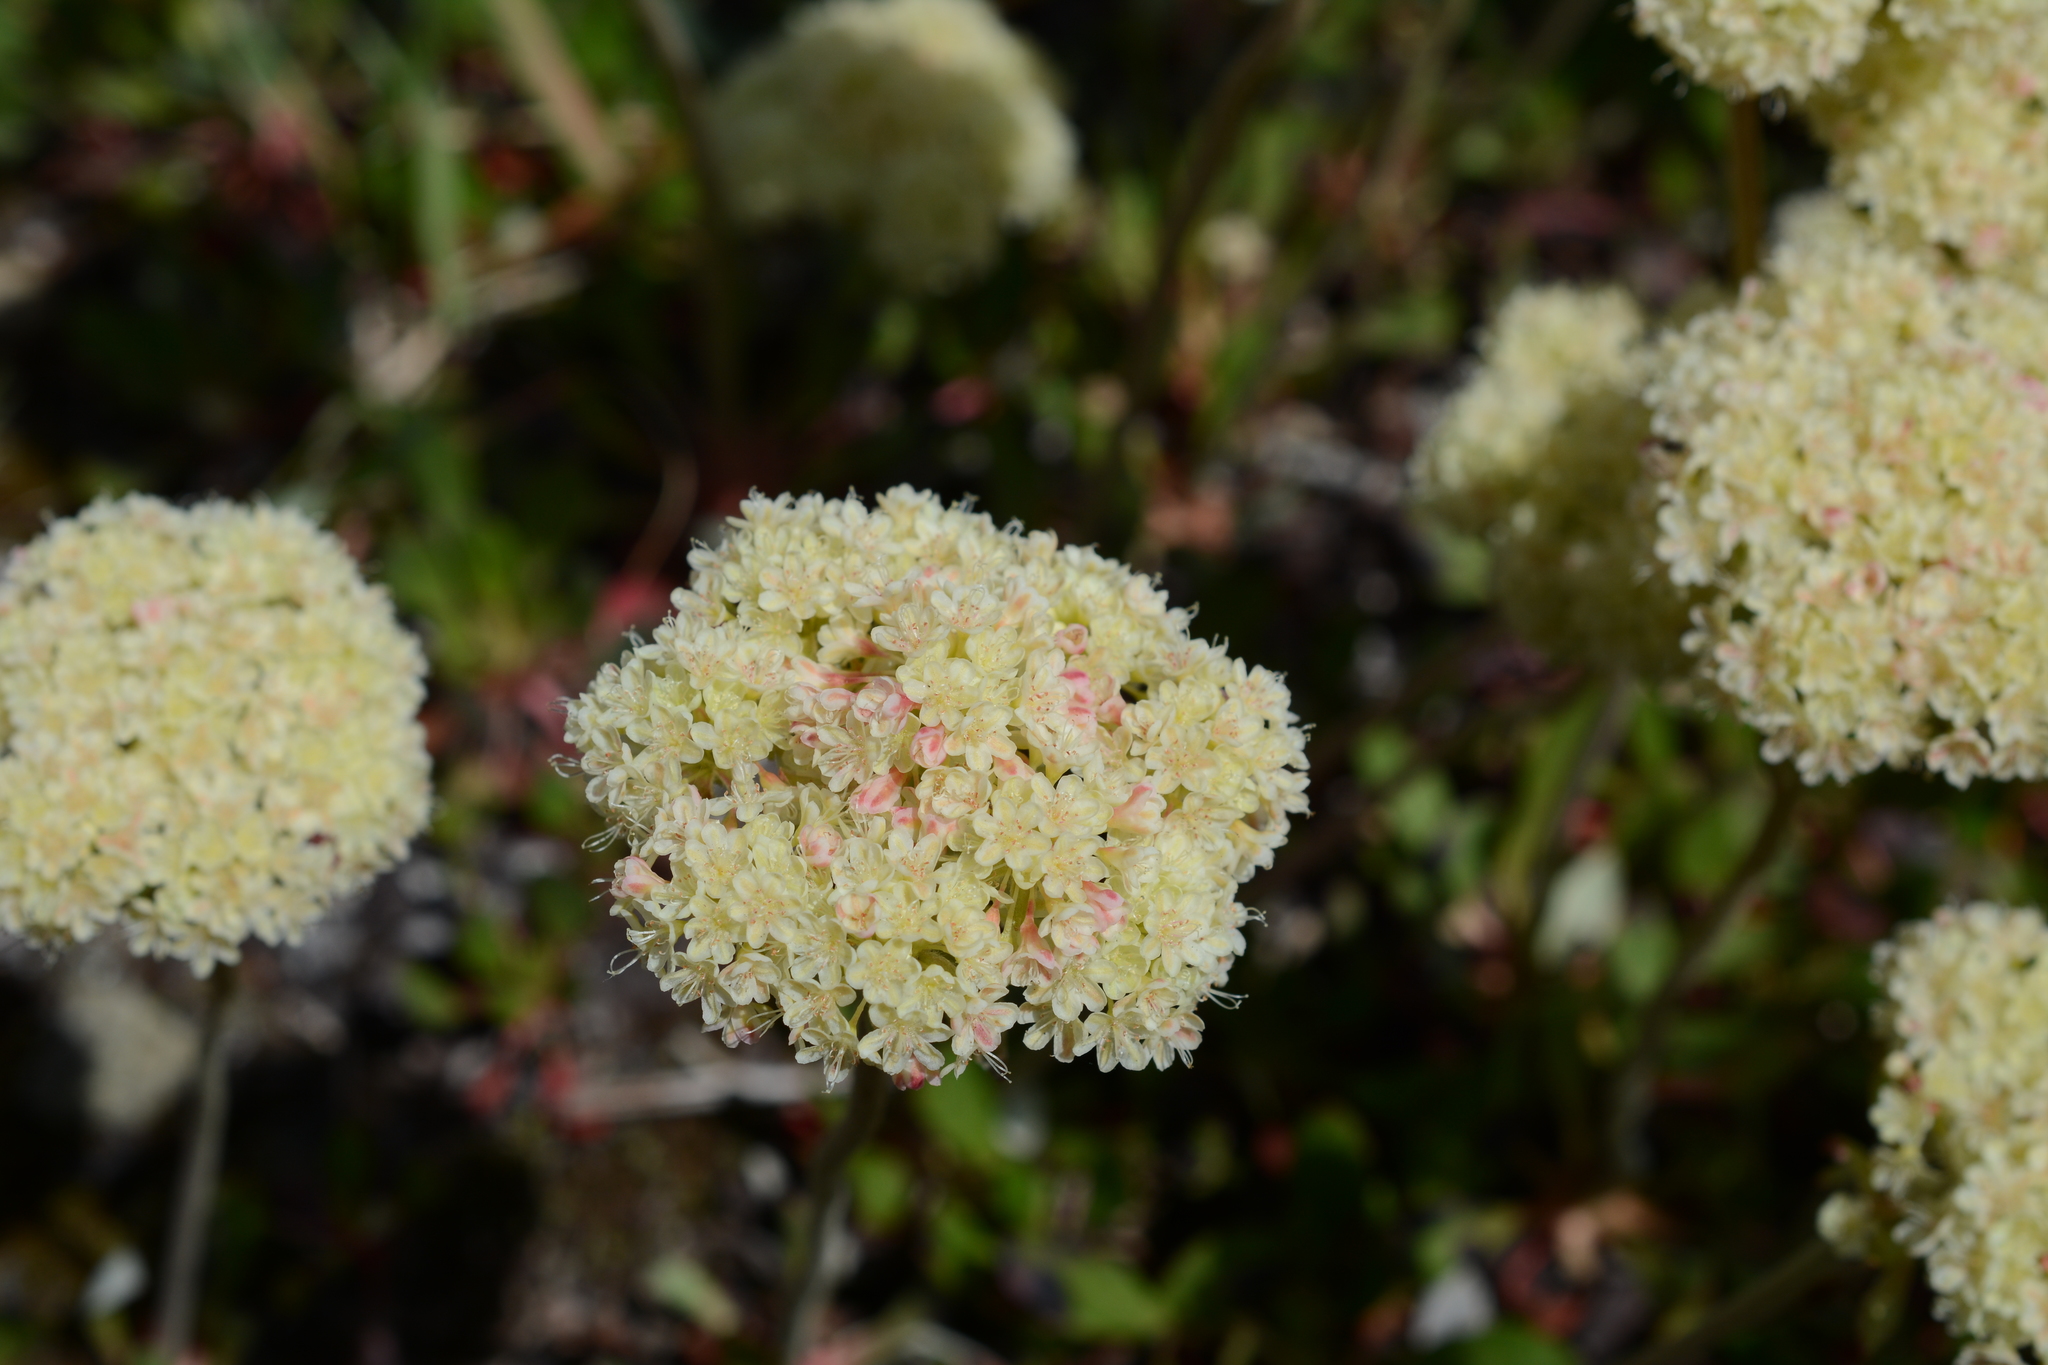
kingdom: Plantae
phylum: Tracheophyta
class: Magnoliopsida
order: Caryophyllales
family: Polygonaceae
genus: Eriogonum
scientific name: Eriogonum umbellatum
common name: Sulfur-buckwheat
